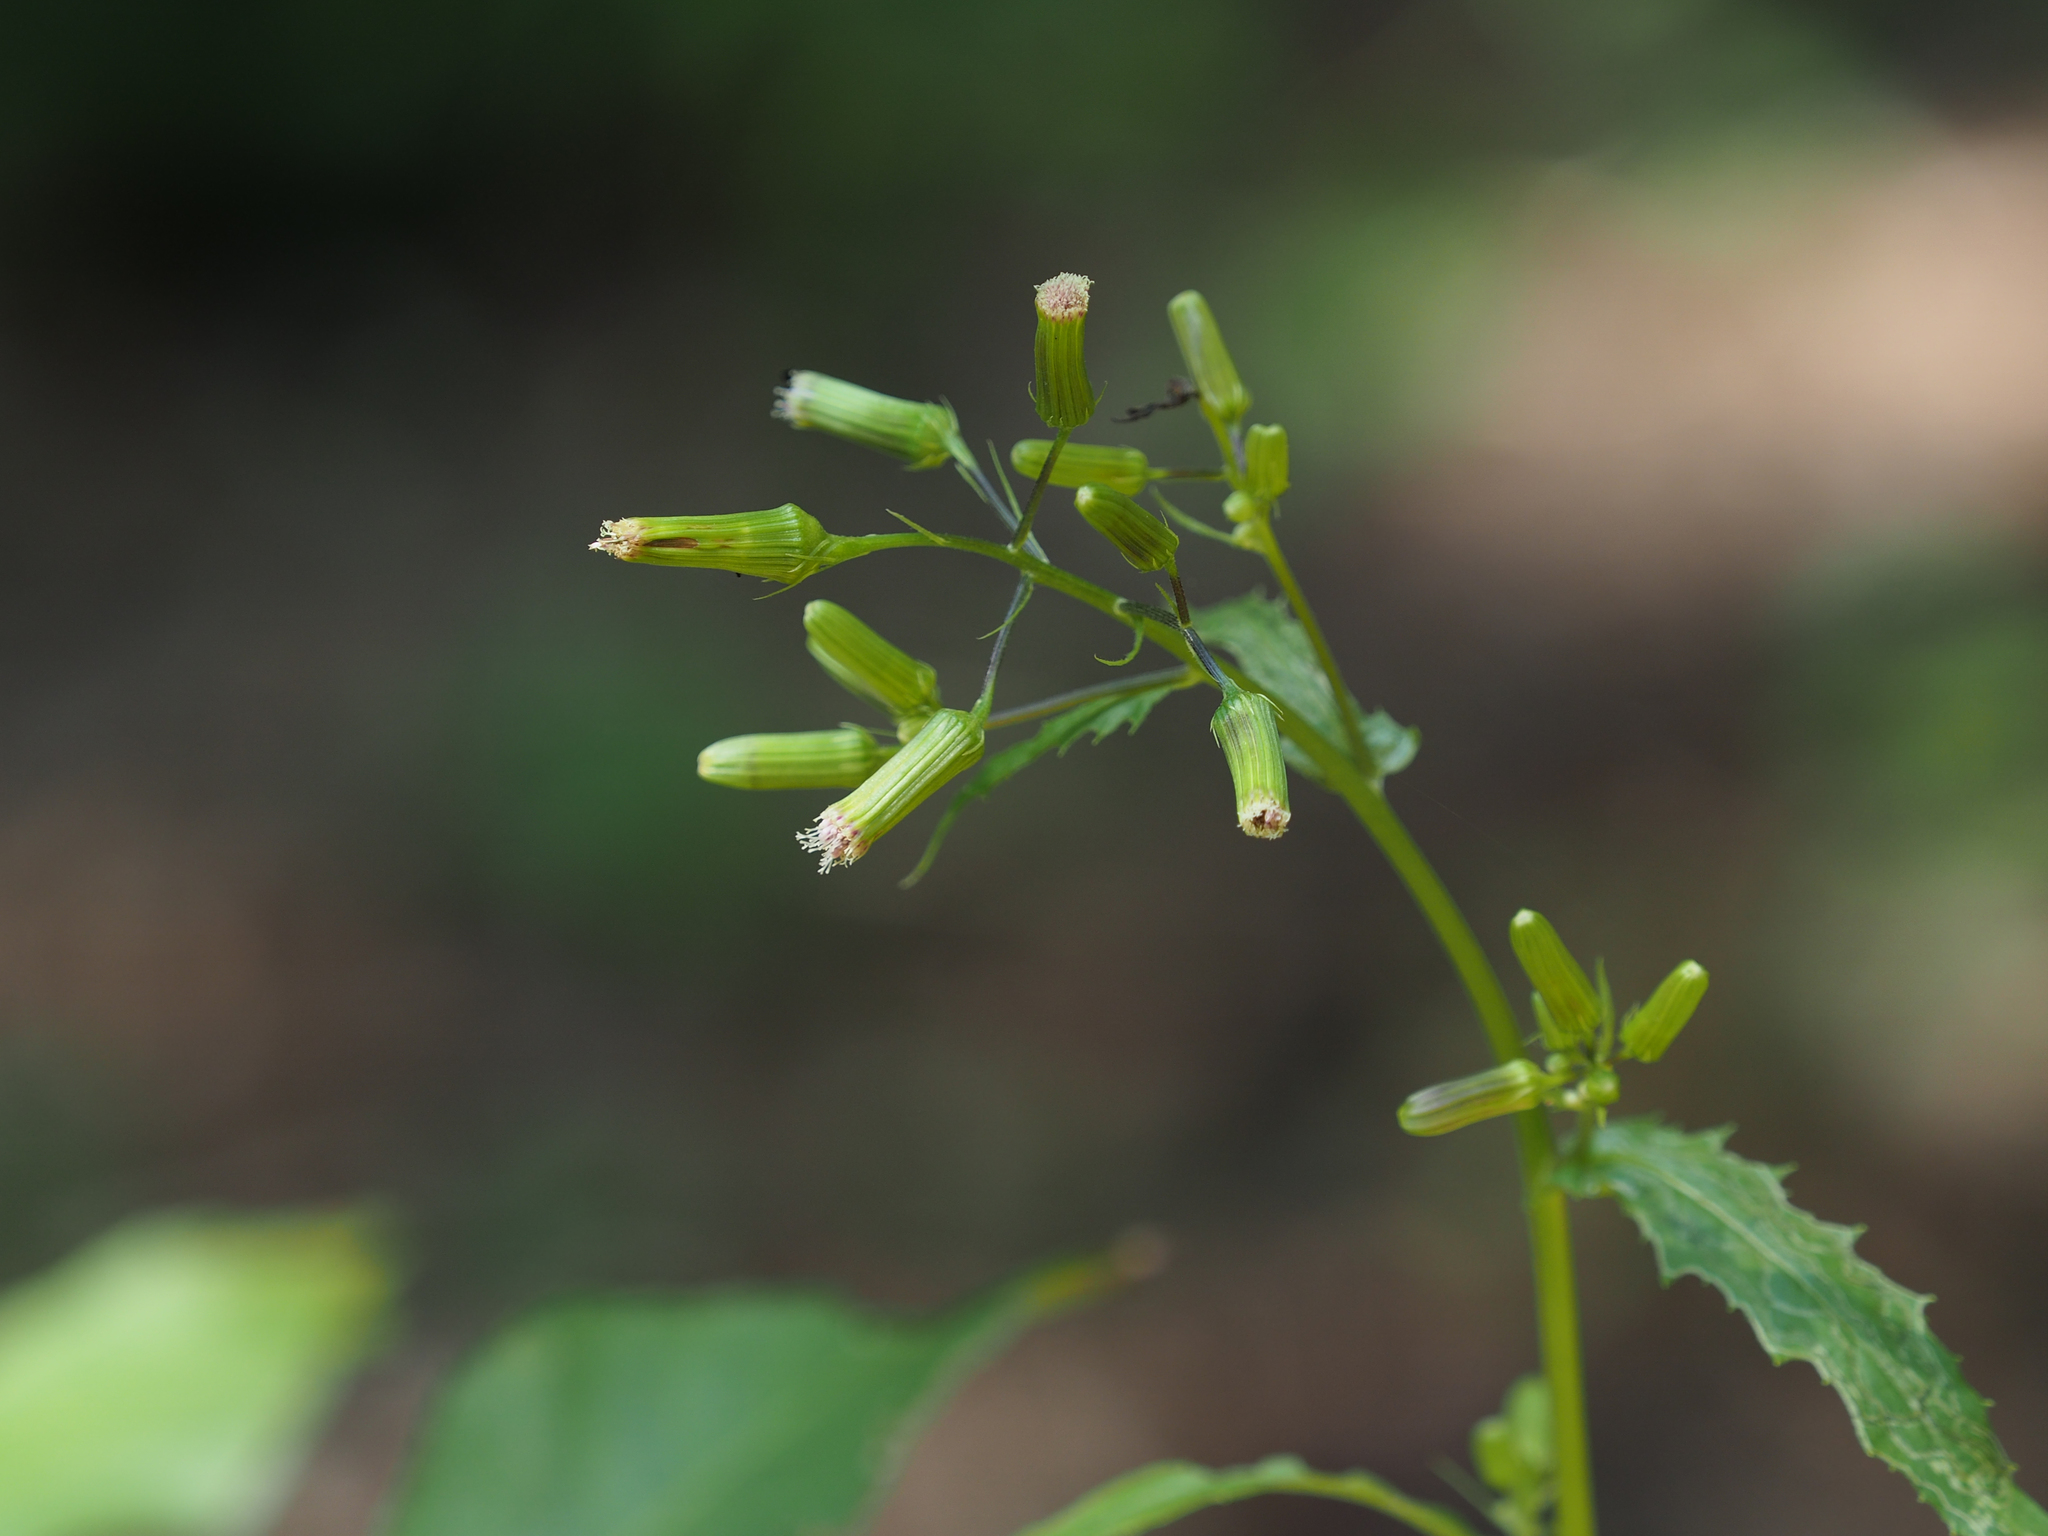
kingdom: Plantae
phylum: Tracheophyta
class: Magnoliopsida
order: Asterales
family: Asteraceae
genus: Erechtites
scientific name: Erechtites hieraciifolius
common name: American burnweed
